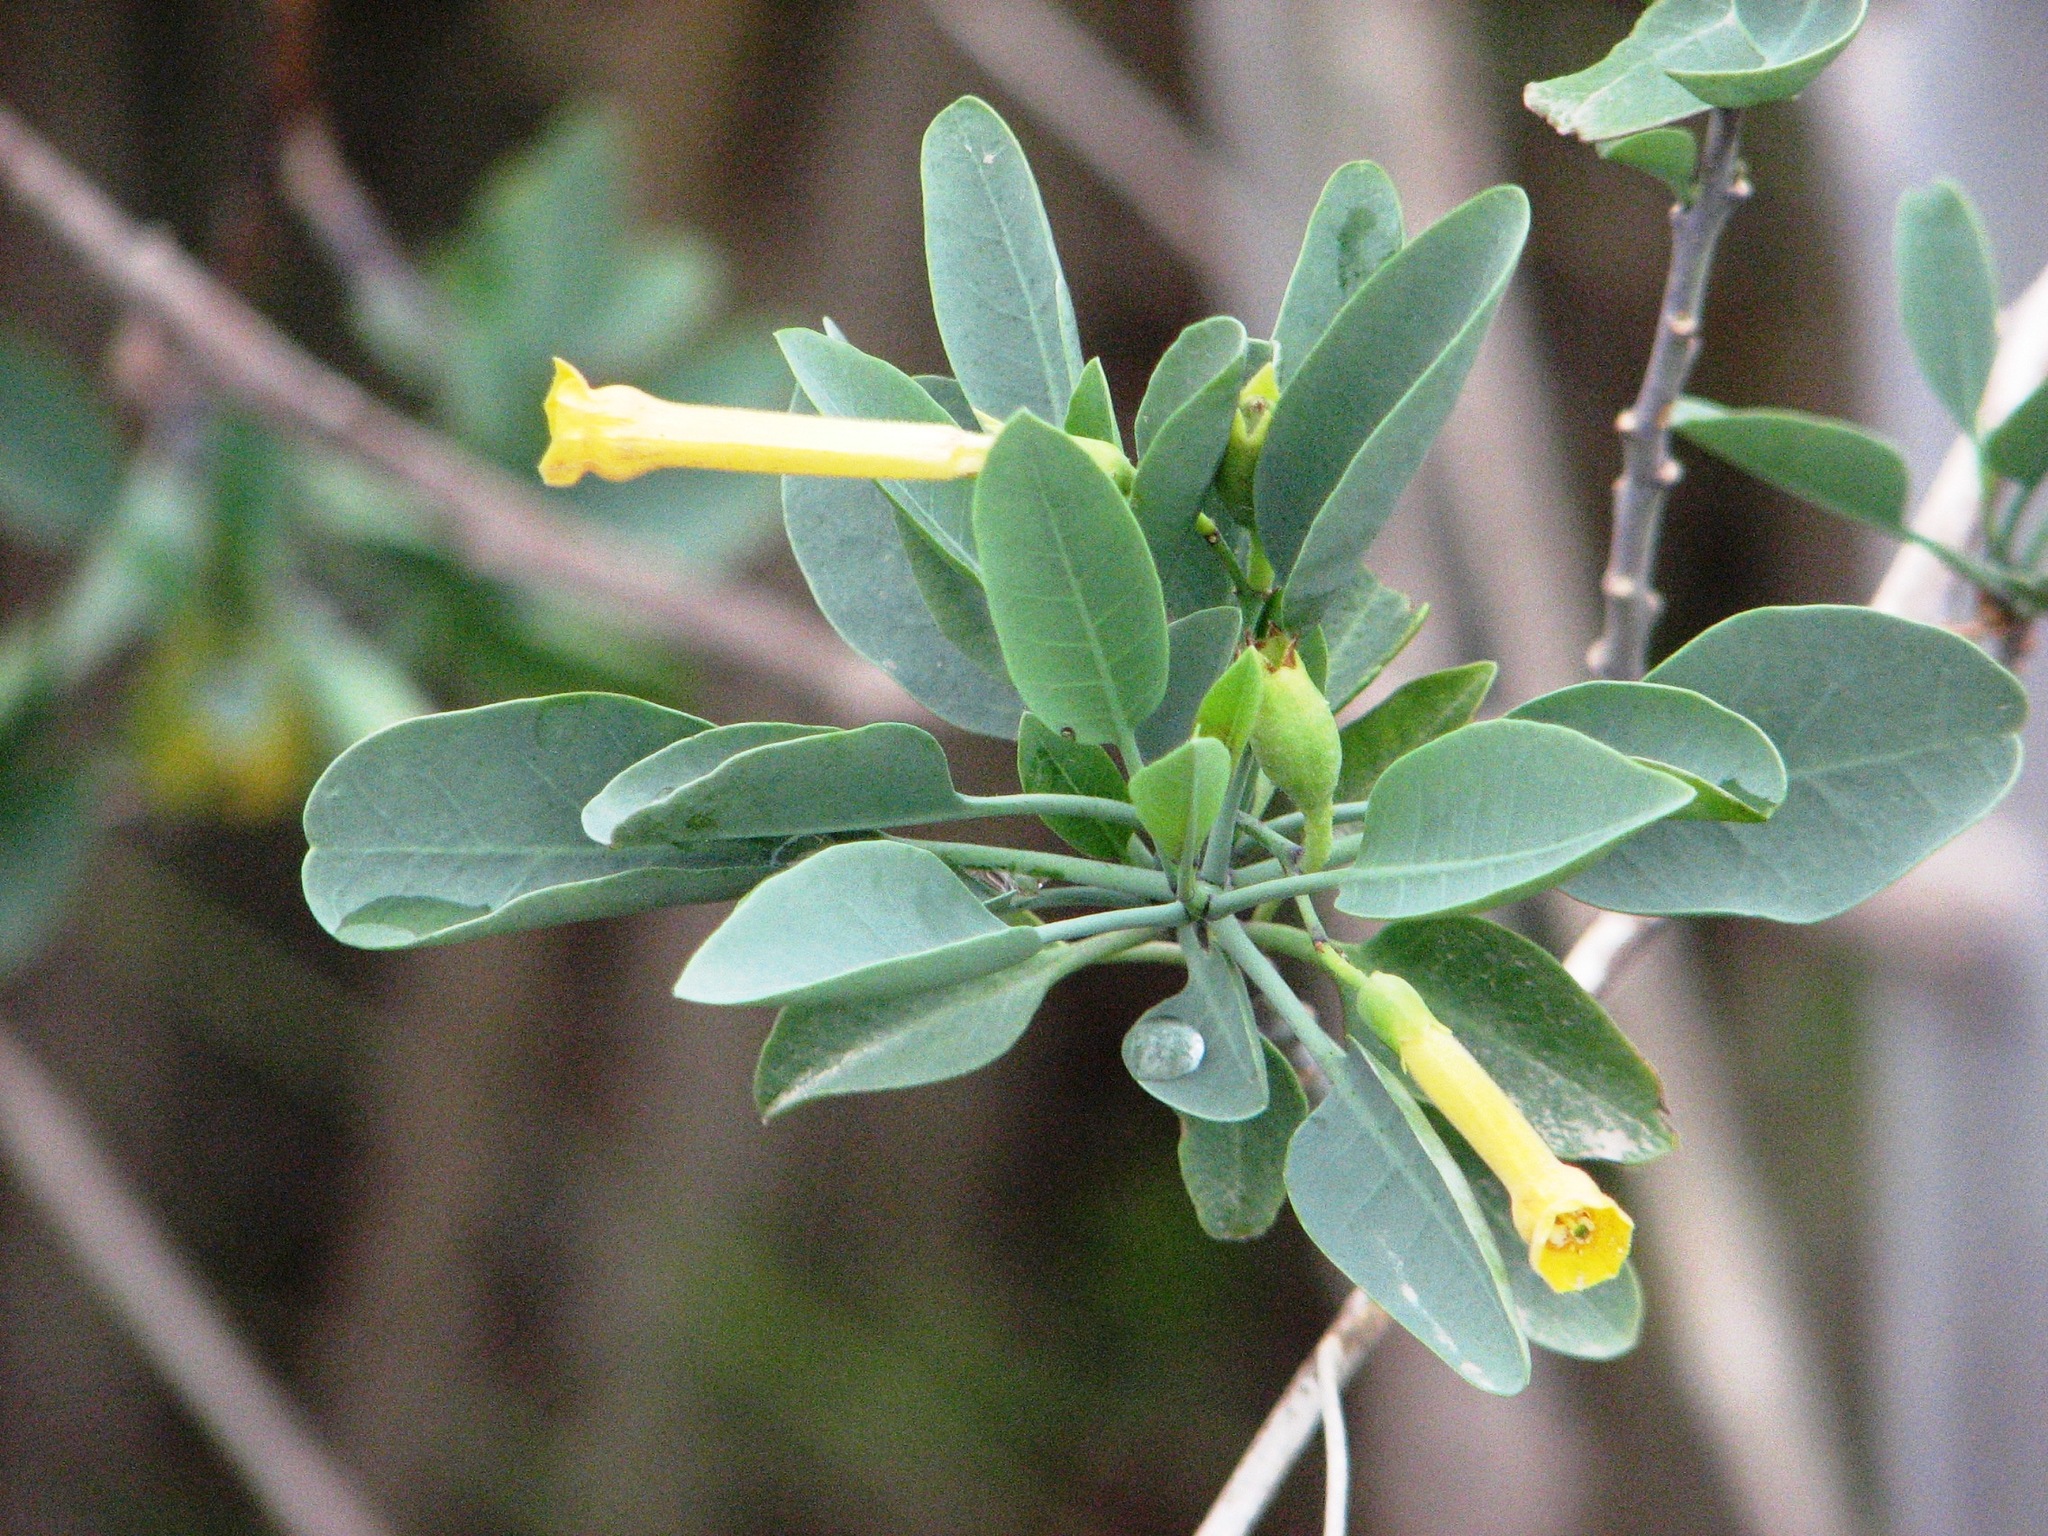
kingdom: Plantae
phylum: Tracheophyta
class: Magnoliopsida
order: Solanales
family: Solanaceae
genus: Nicotiana
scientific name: Nicotiana glauca
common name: Tree tobacco
